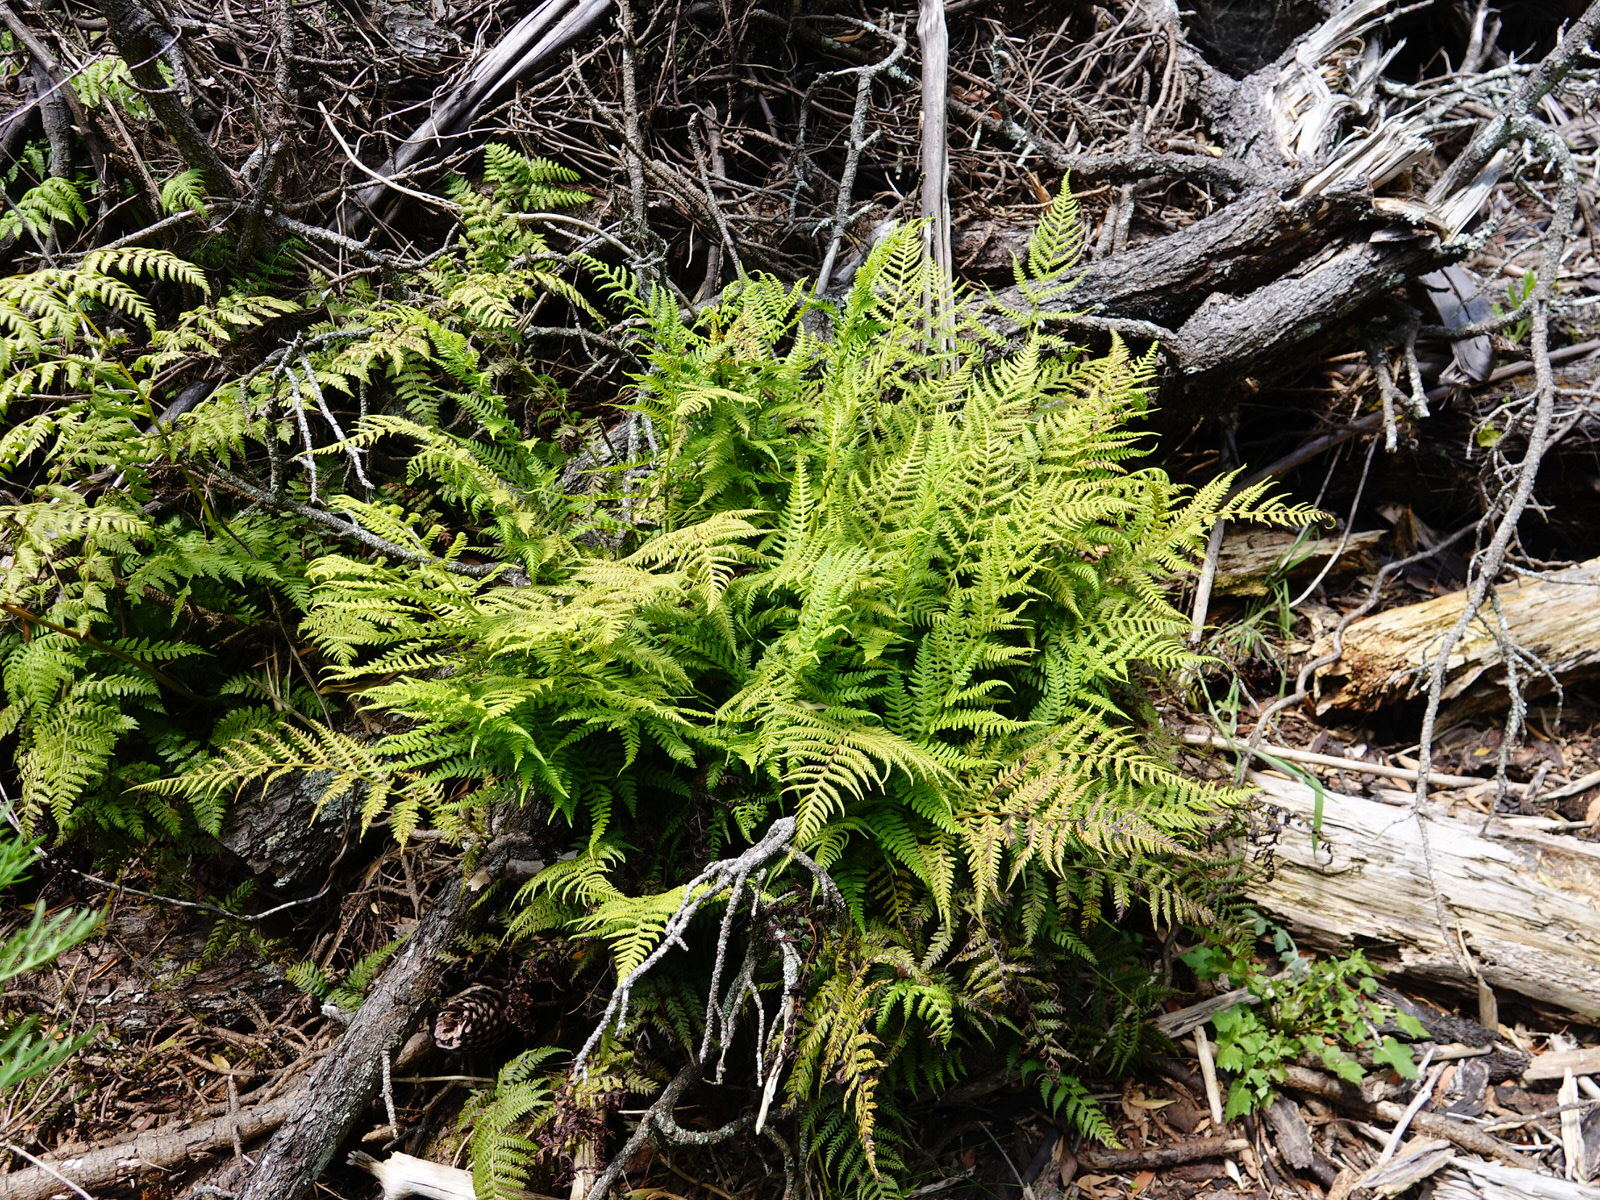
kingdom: Plantae
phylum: Tracheophyta
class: Polypodiopsida
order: Polypodiales
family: Athyriaceae
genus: Diplazium
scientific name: Diplazium congruum
